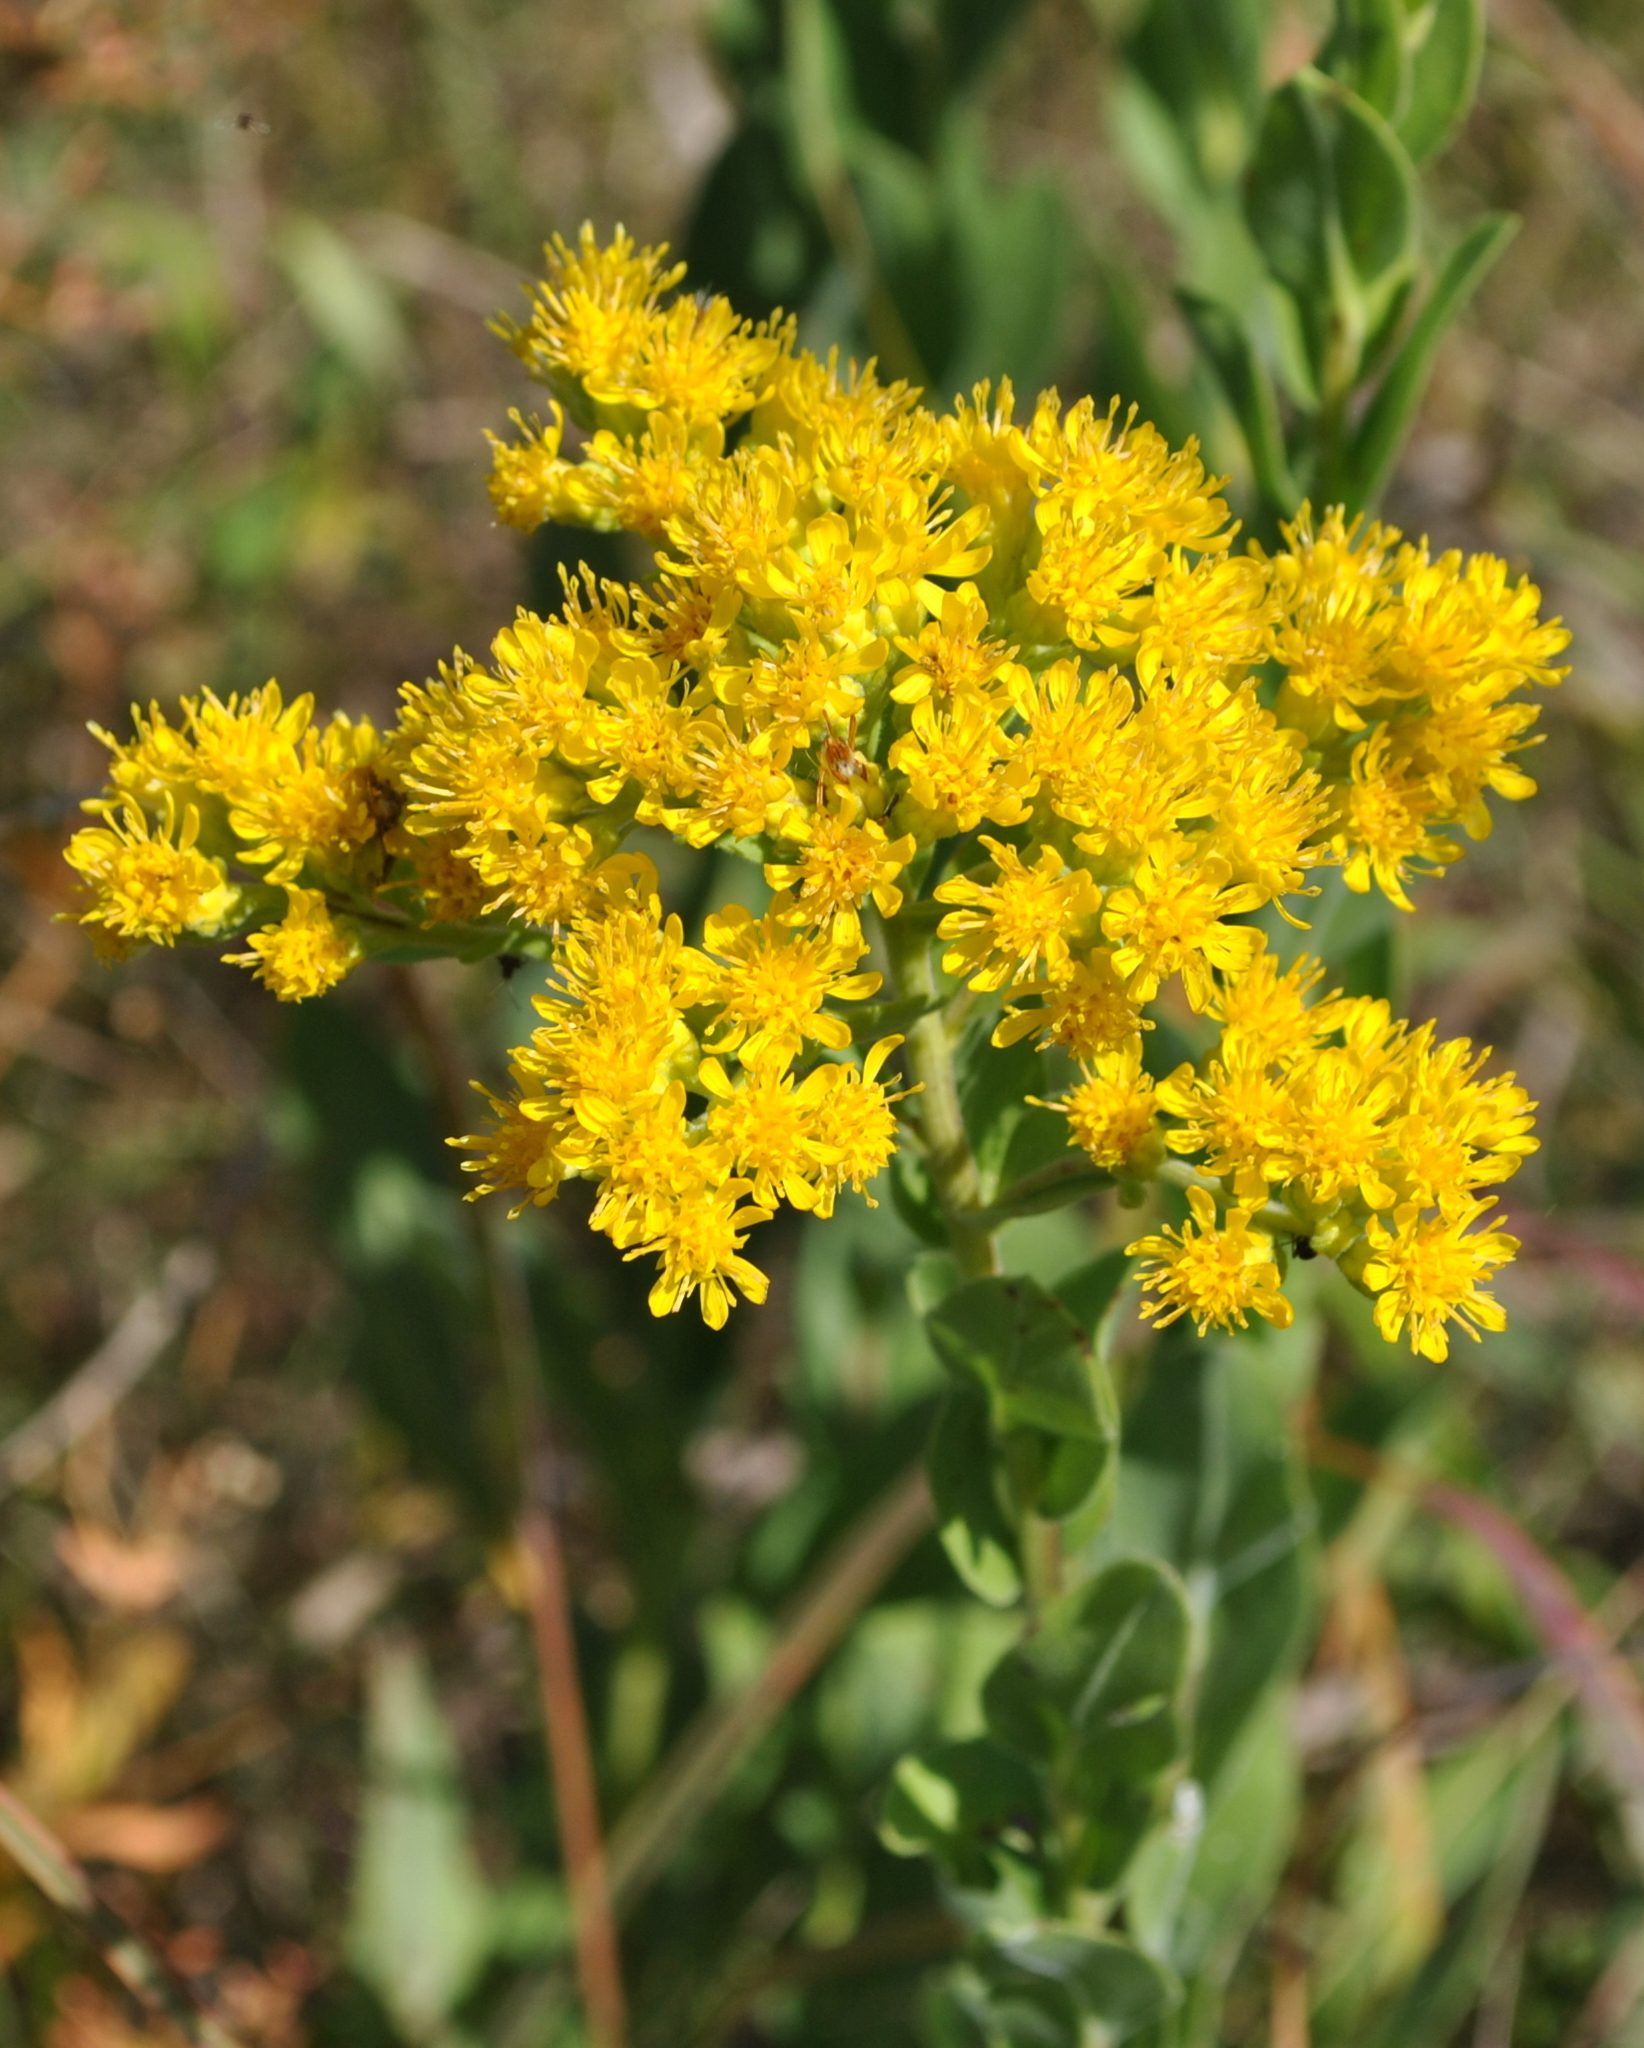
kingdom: Plantae
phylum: Tracheophyta
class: Magnoliopsida
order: Asterales
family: Asteraceae
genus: Solidago
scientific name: Solidago rigida
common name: Rigid goldenrod
